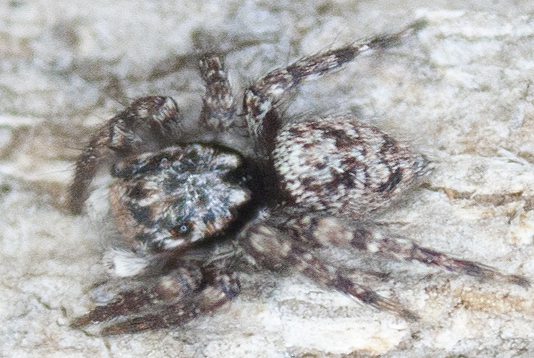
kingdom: Animalia
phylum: Arthropoda
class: Arachnida
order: Araneae
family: Salticidae
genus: Salpesia
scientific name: Salpesia squalida
